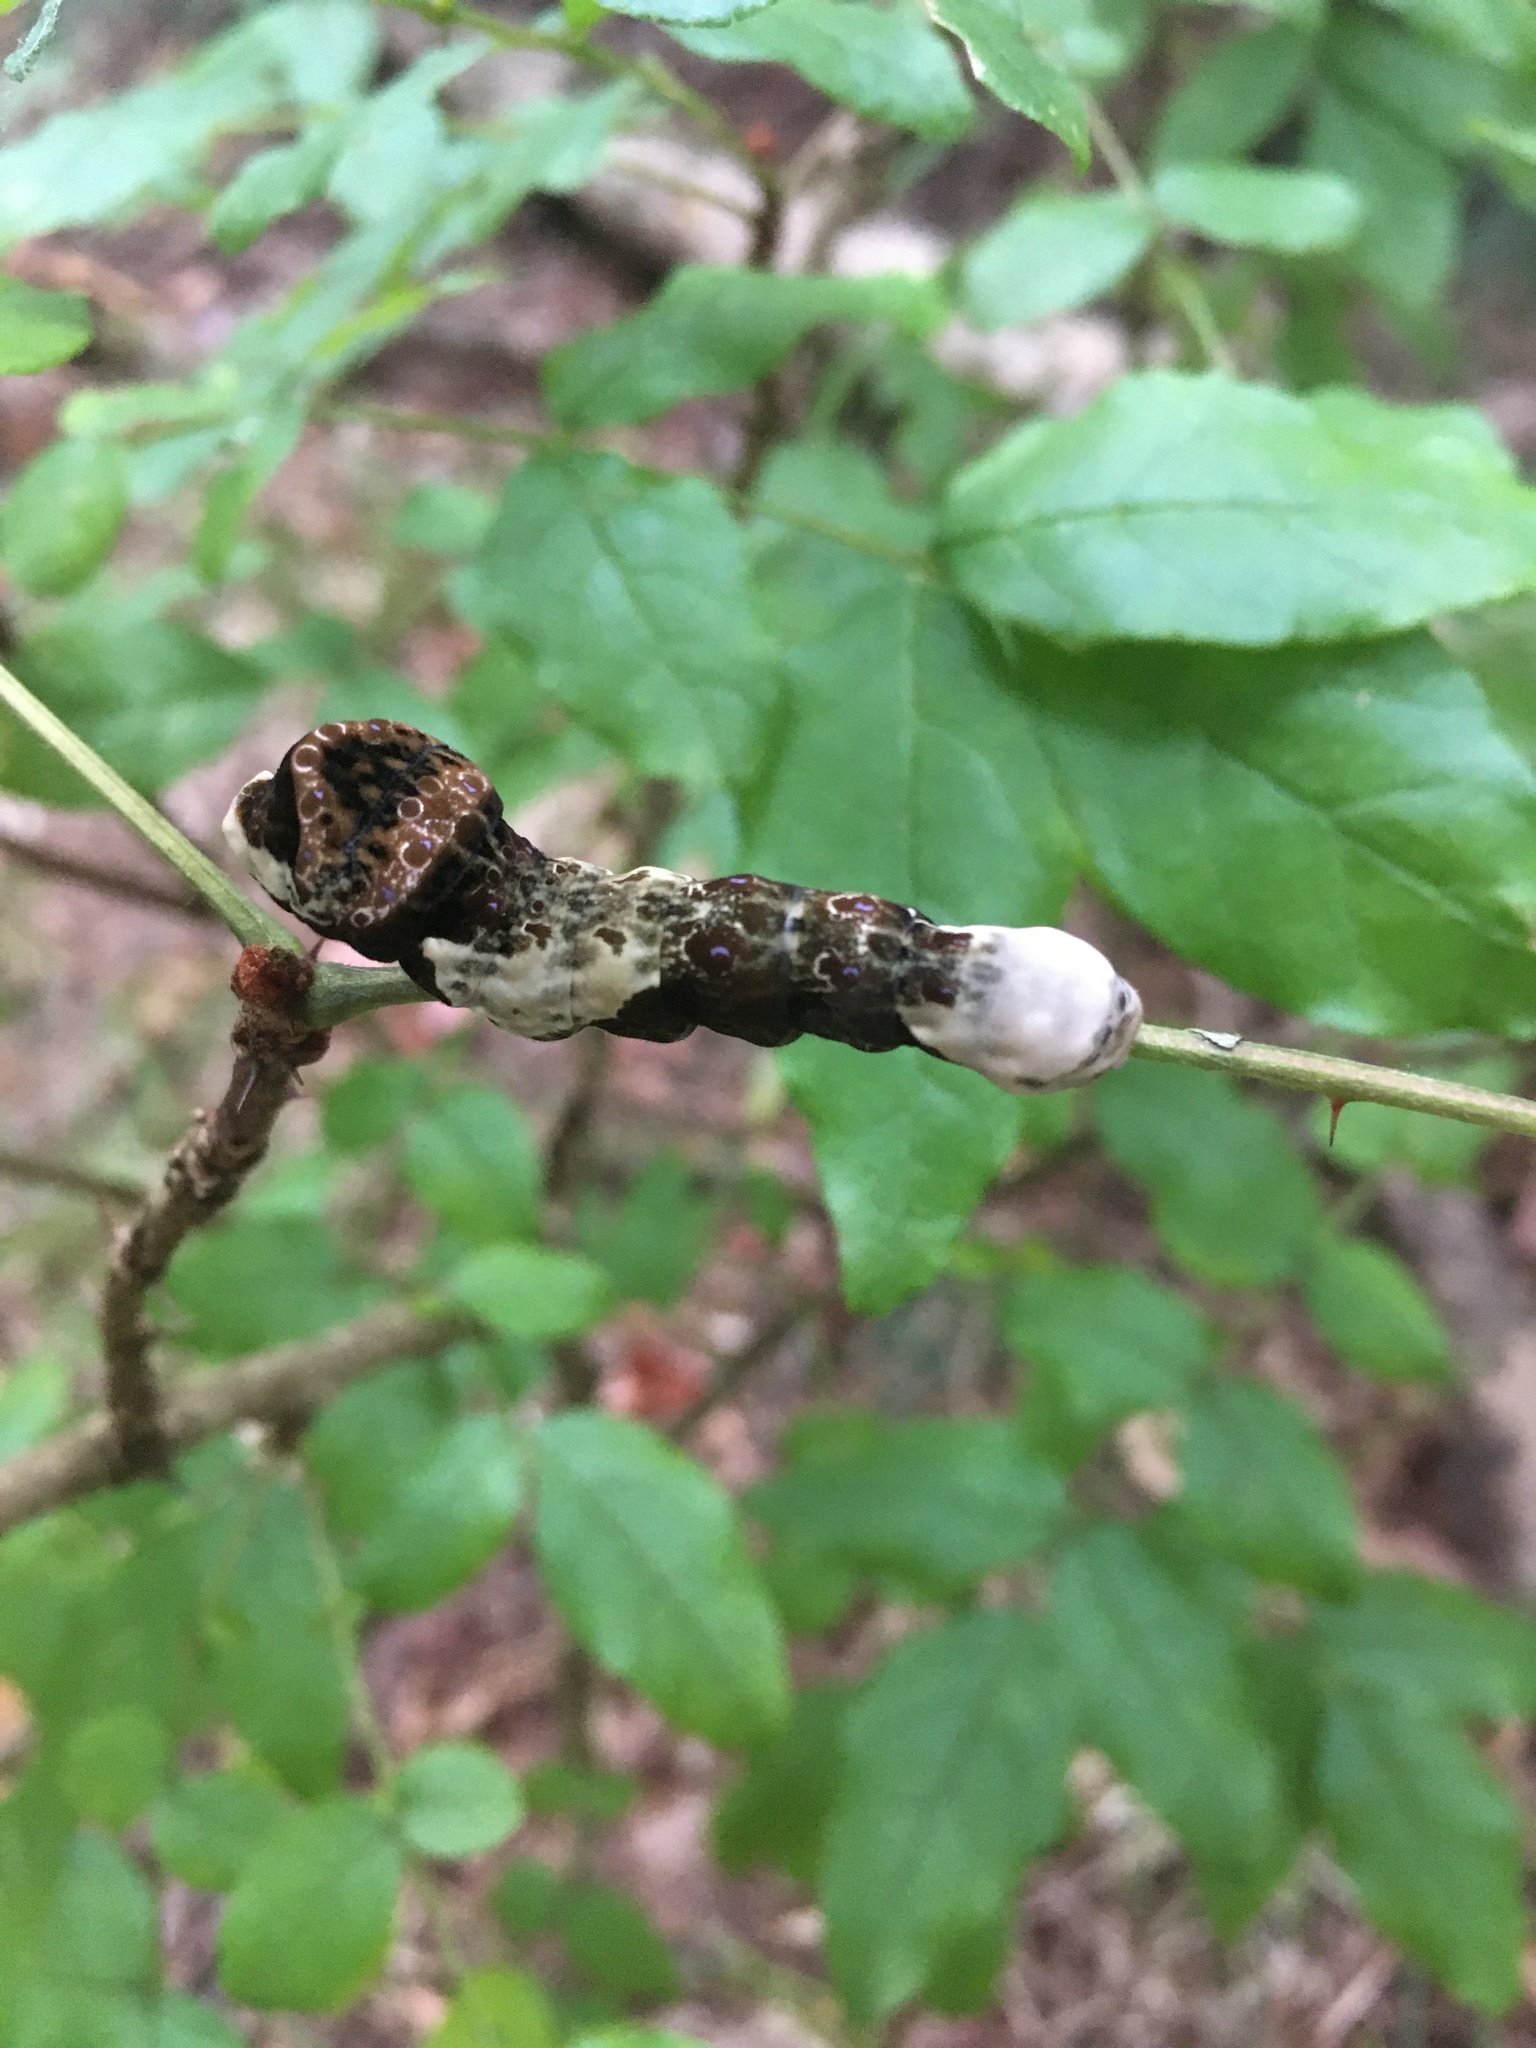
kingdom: Animalia
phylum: Arthropoda
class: Insecta
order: Lepidoptera
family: Papilionidae
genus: Papilio
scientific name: Papilio cresphontes
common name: Giant swallowtail
